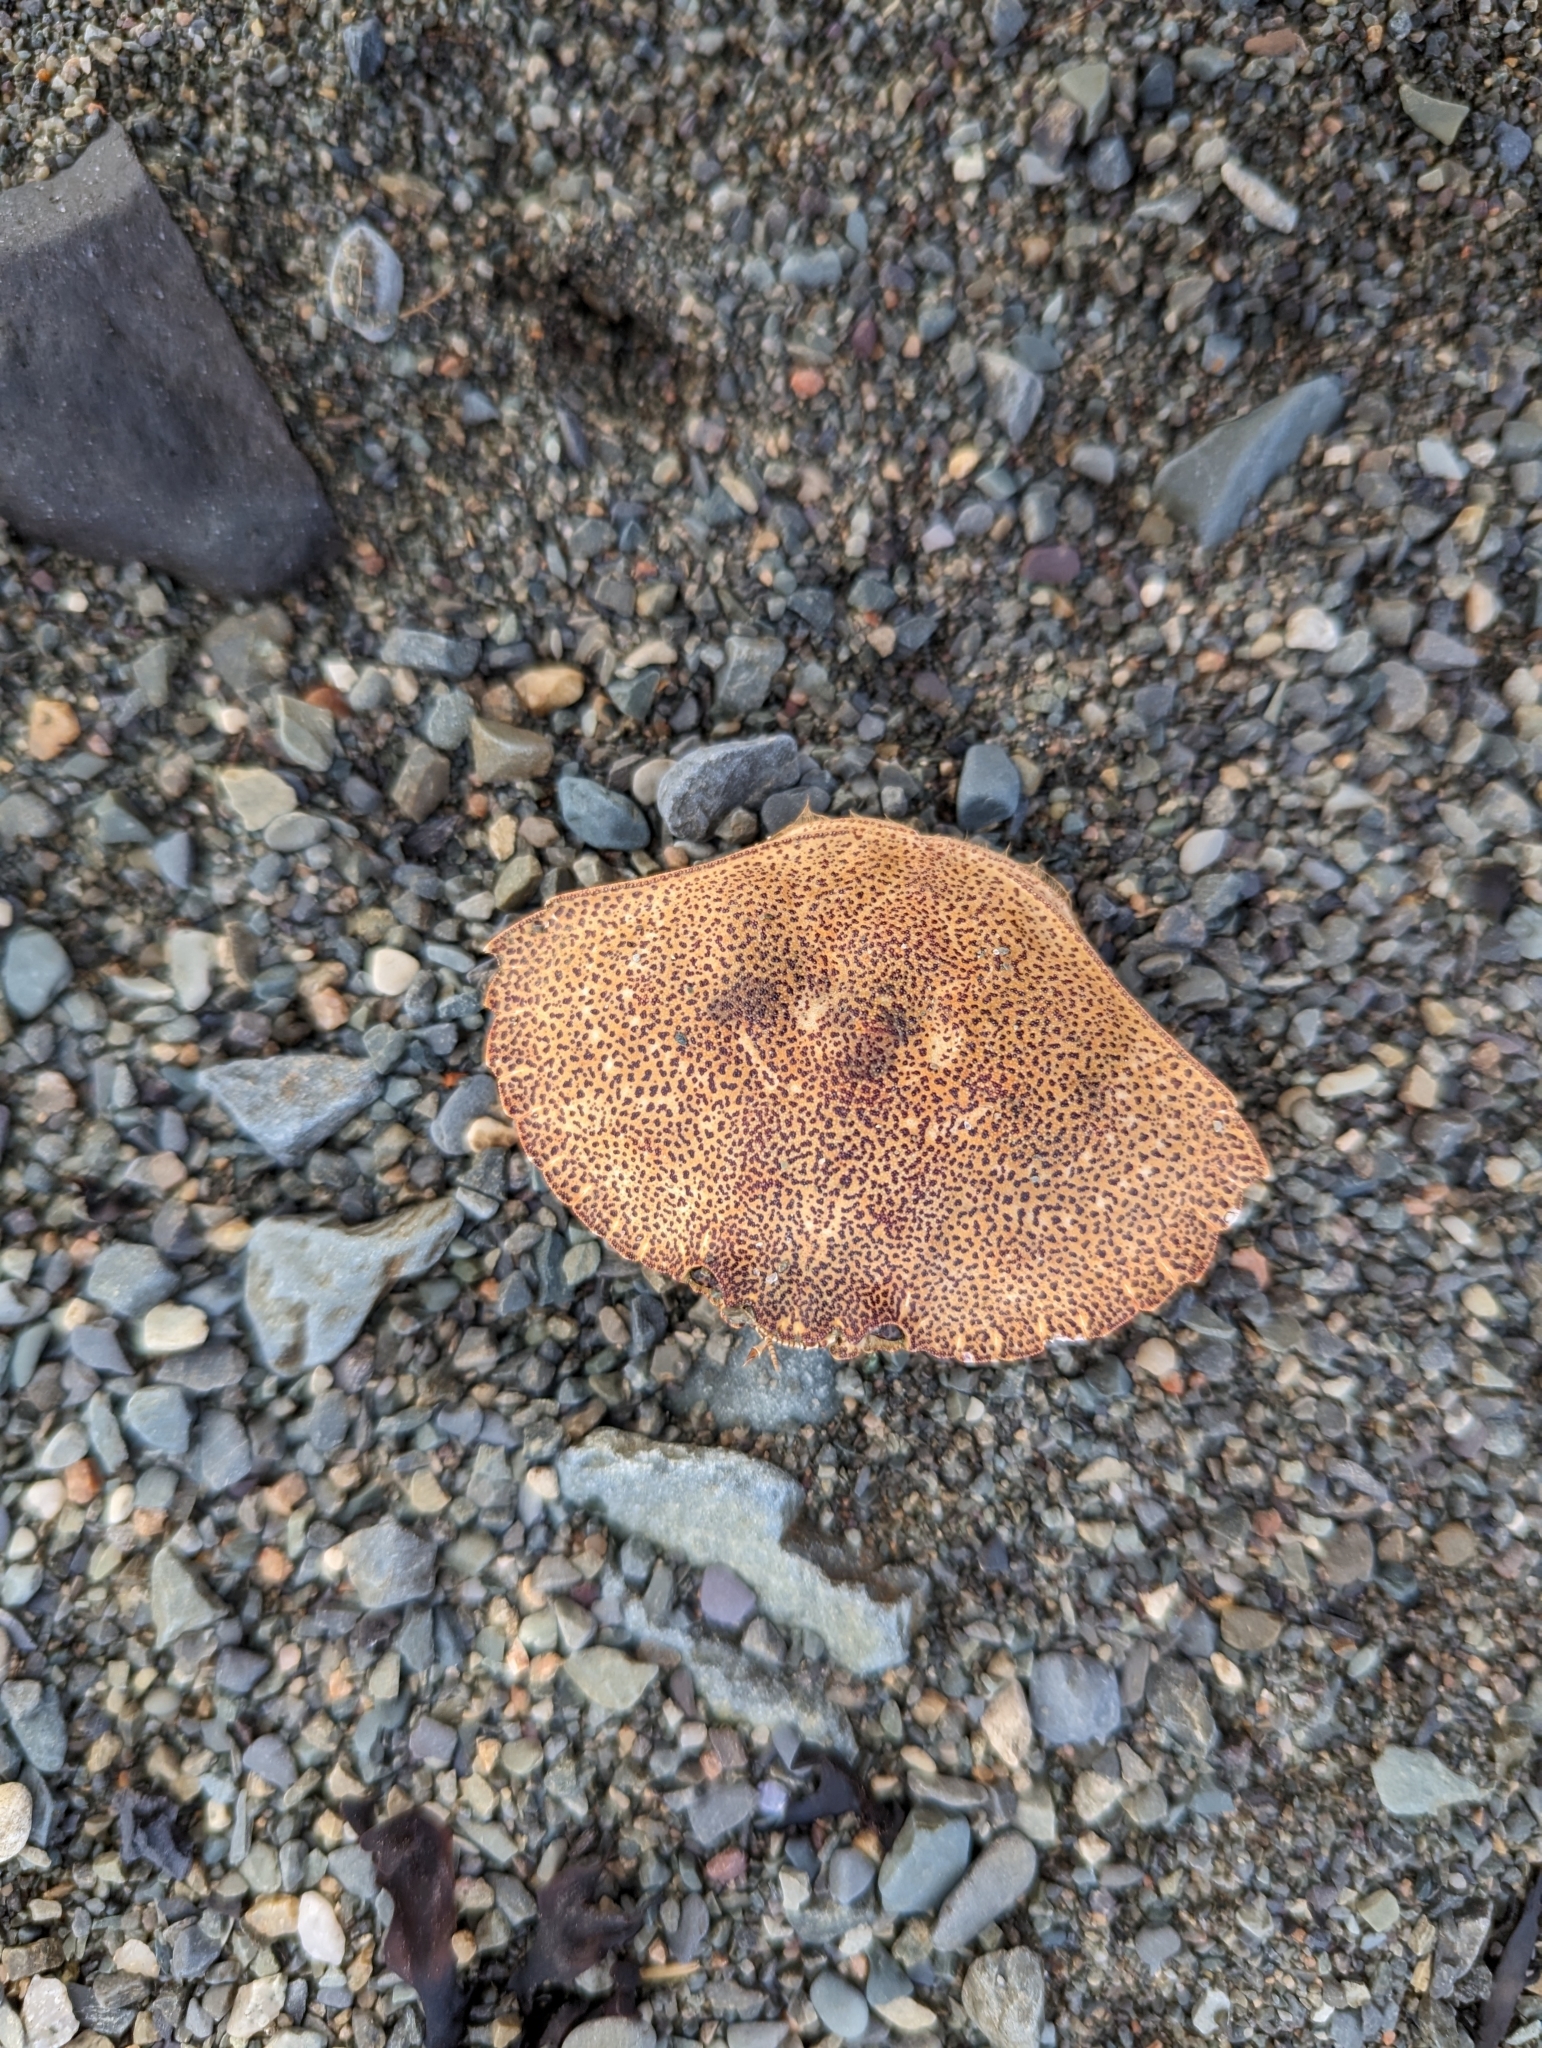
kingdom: Animalia
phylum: Arthropoda
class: Malacostraca
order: Decapoda
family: Cancridae
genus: Cancer
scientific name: Cancer irroratus
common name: Atlantic rock crab
